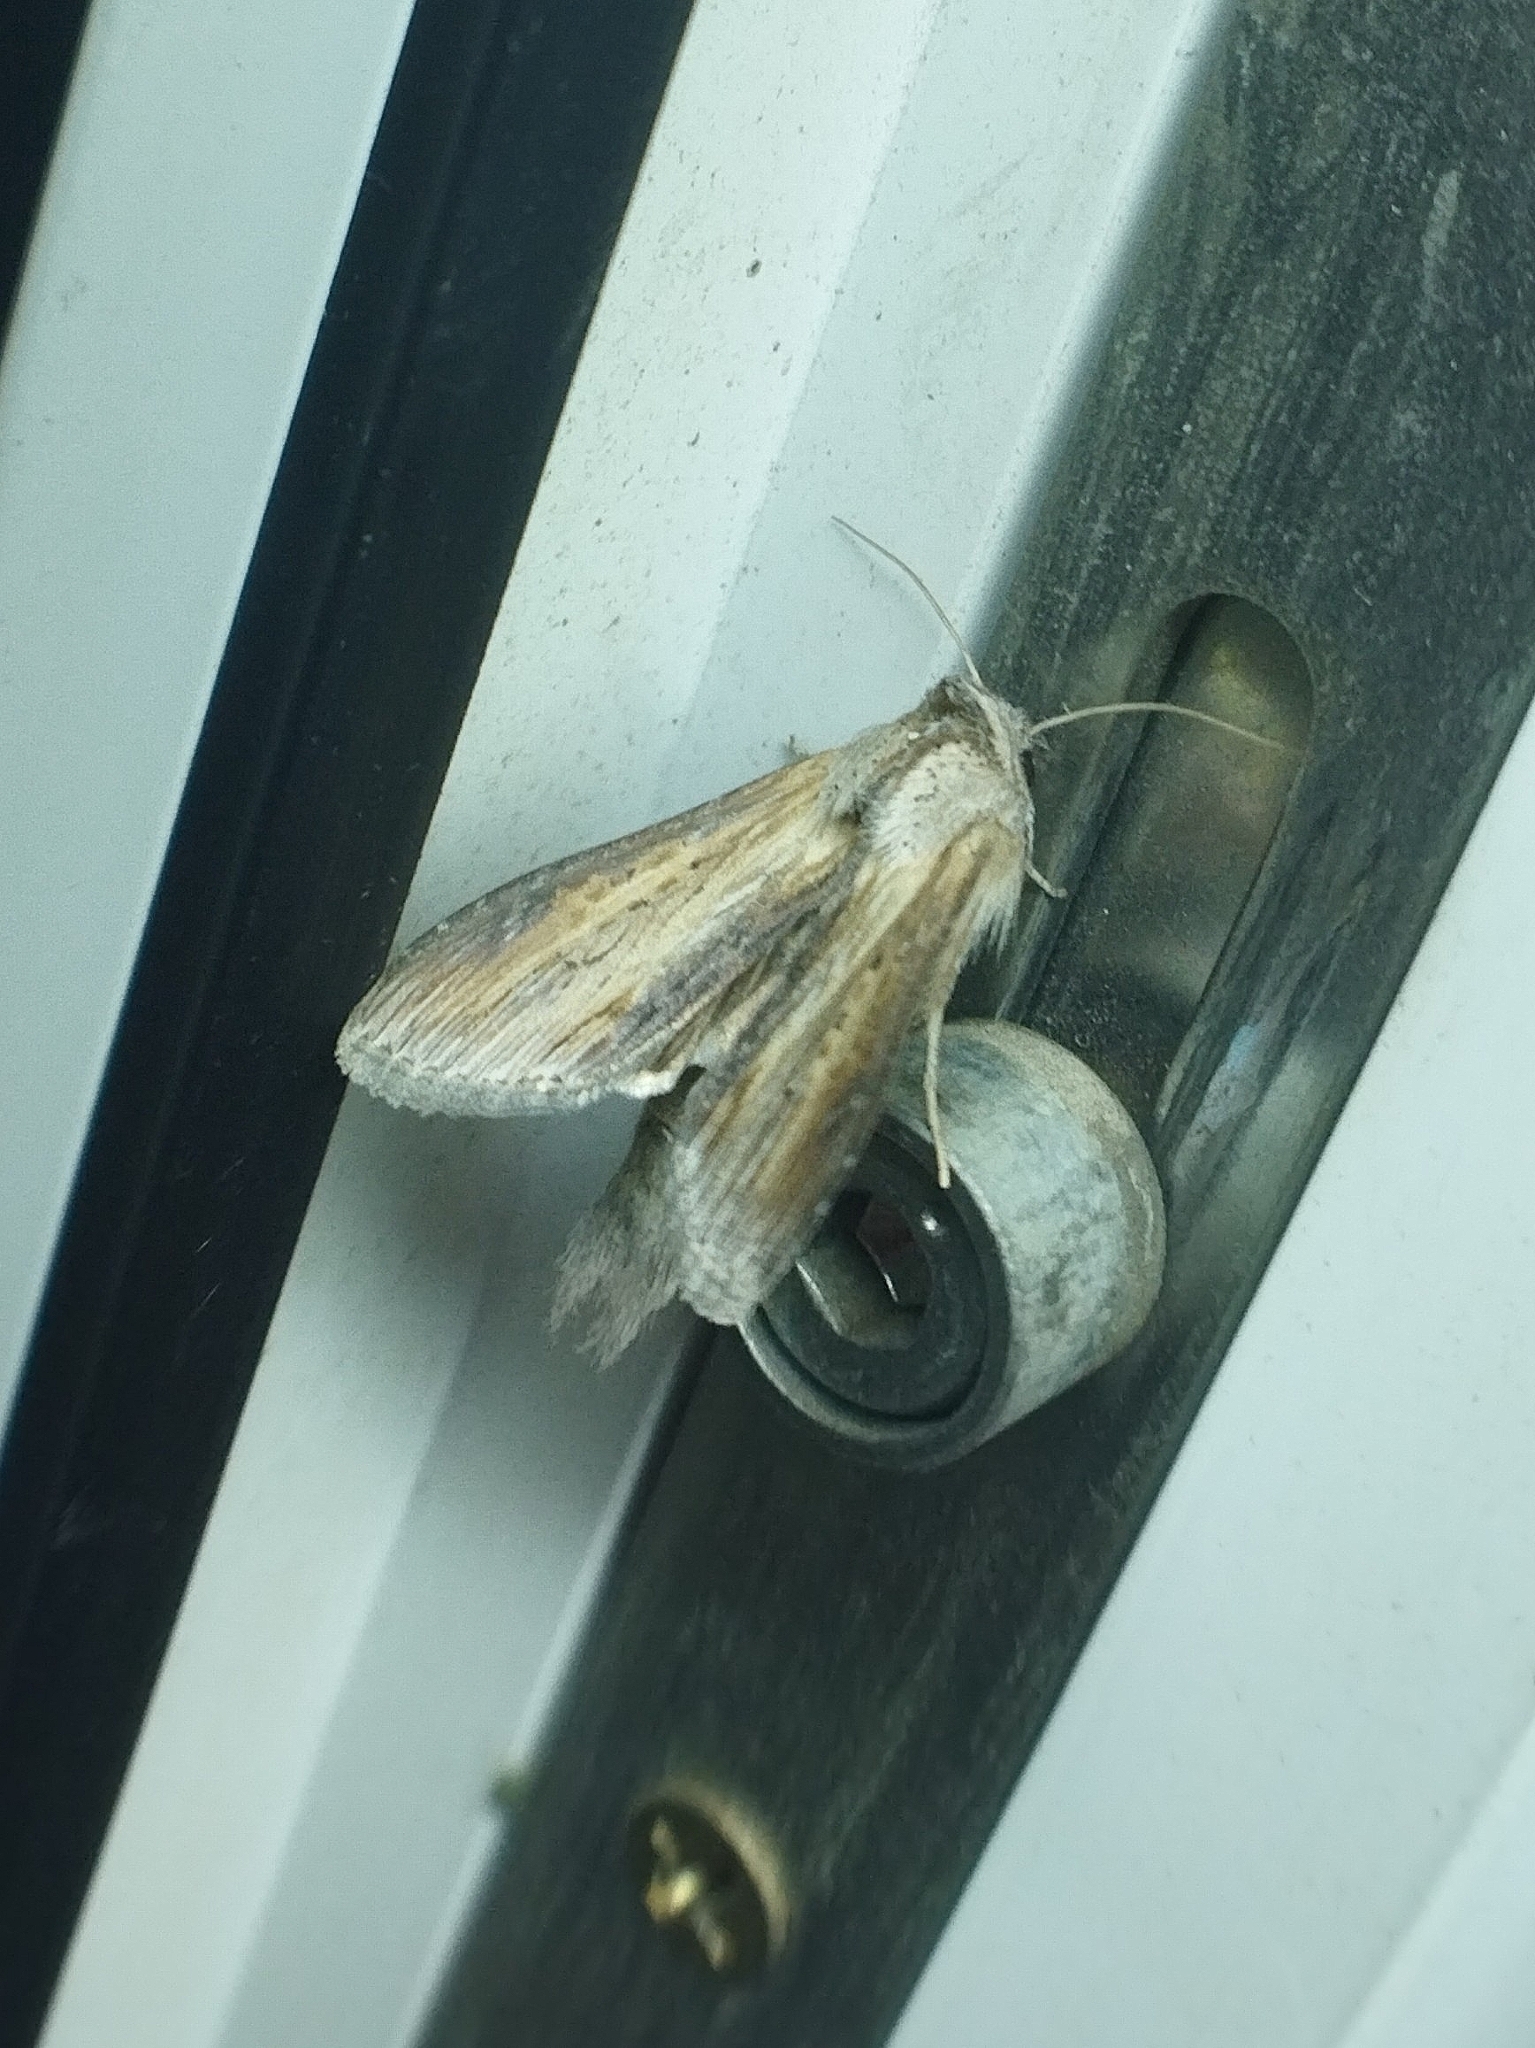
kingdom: Animalia
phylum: Arthropoda
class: Insecta
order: Lepidoptera
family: Noctuidae
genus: Cucullia
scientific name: Cucullia virgaureae
